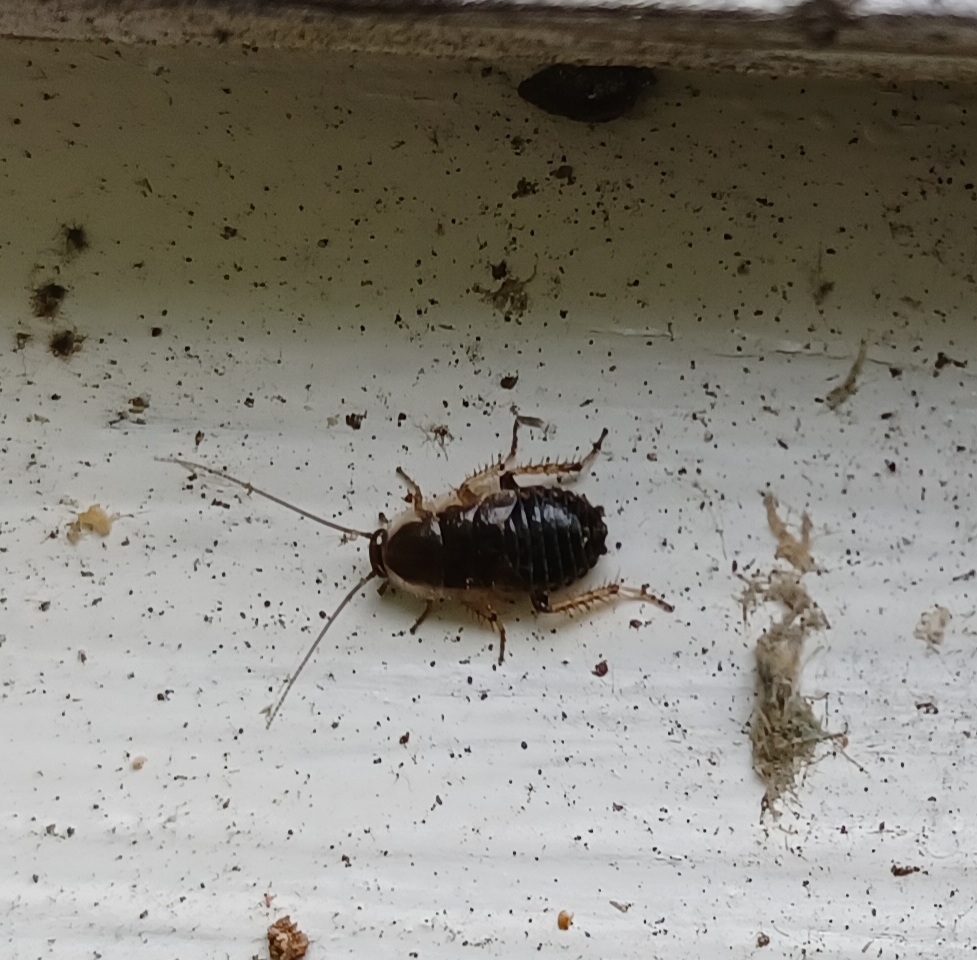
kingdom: Animalia
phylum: Arthropoda
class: Insecta
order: Blattodea
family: Ectobiidae
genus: Ectobius
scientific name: Ectobius sylvestris
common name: Forest cockroach
